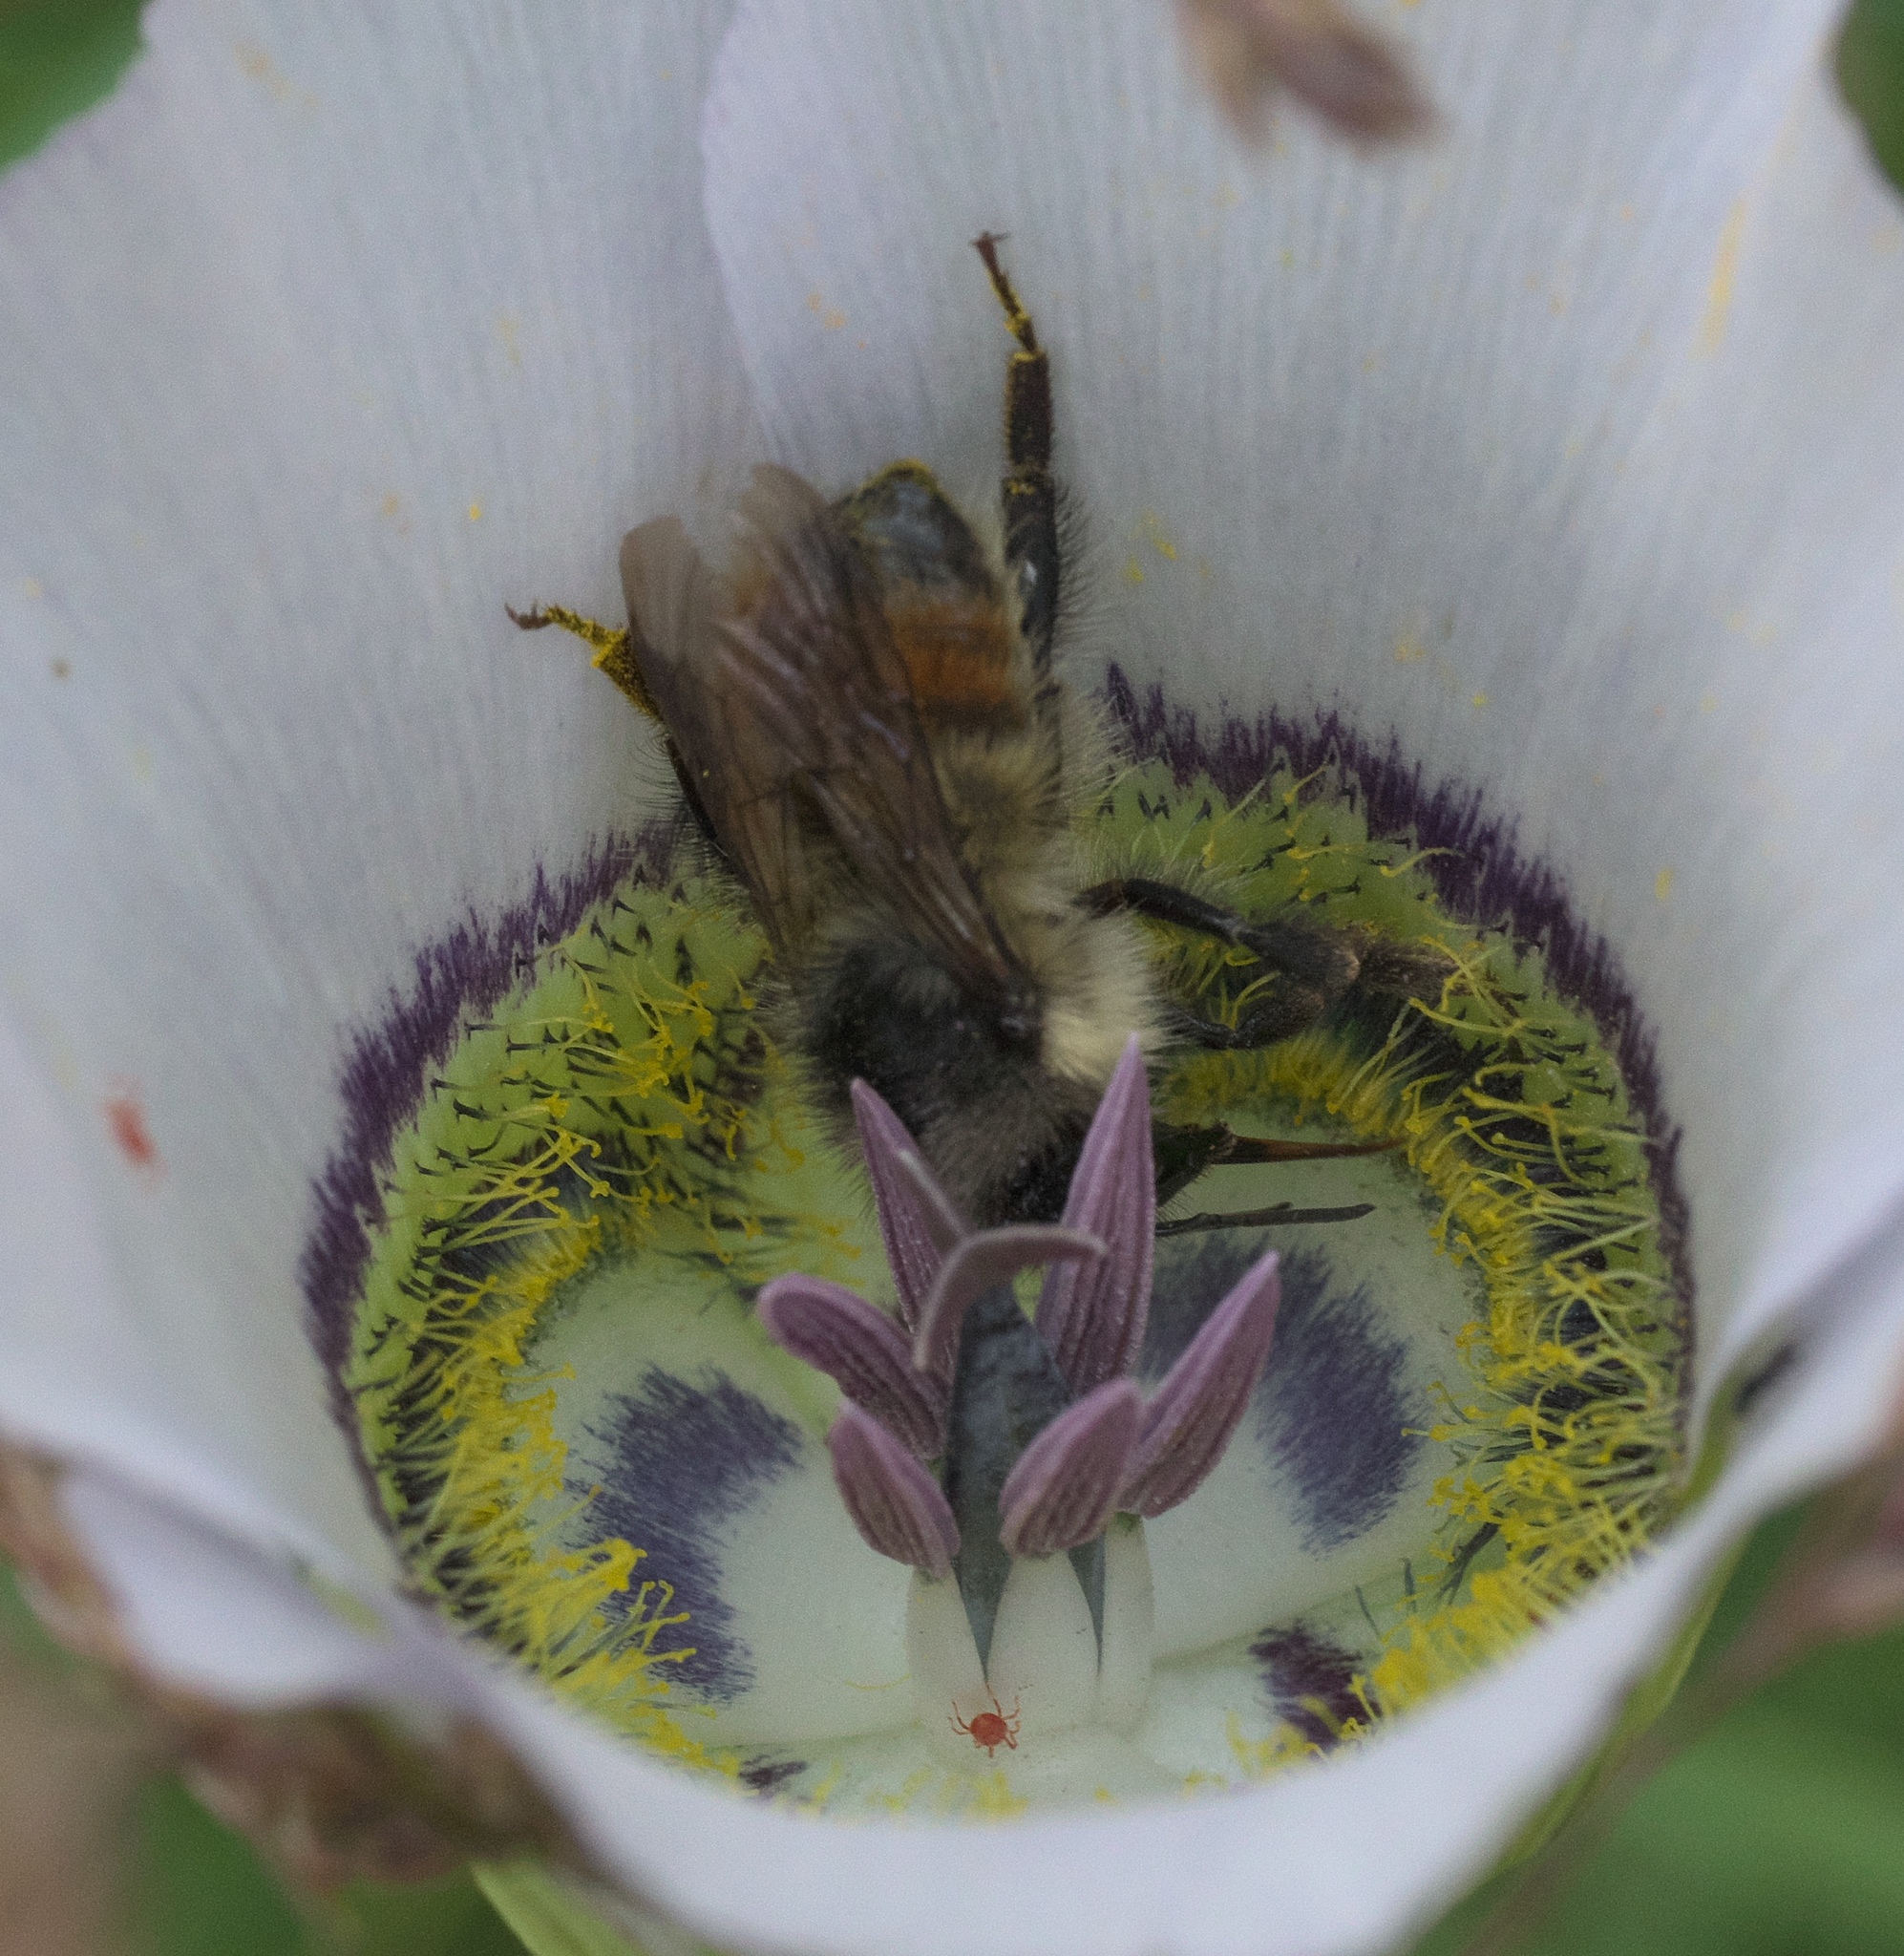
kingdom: Animalia
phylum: Arthropoda
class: Insecta
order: Hymenoptera
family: Apidae
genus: Bombus
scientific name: Bombus flavifrons
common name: Yellow head bumble bee
